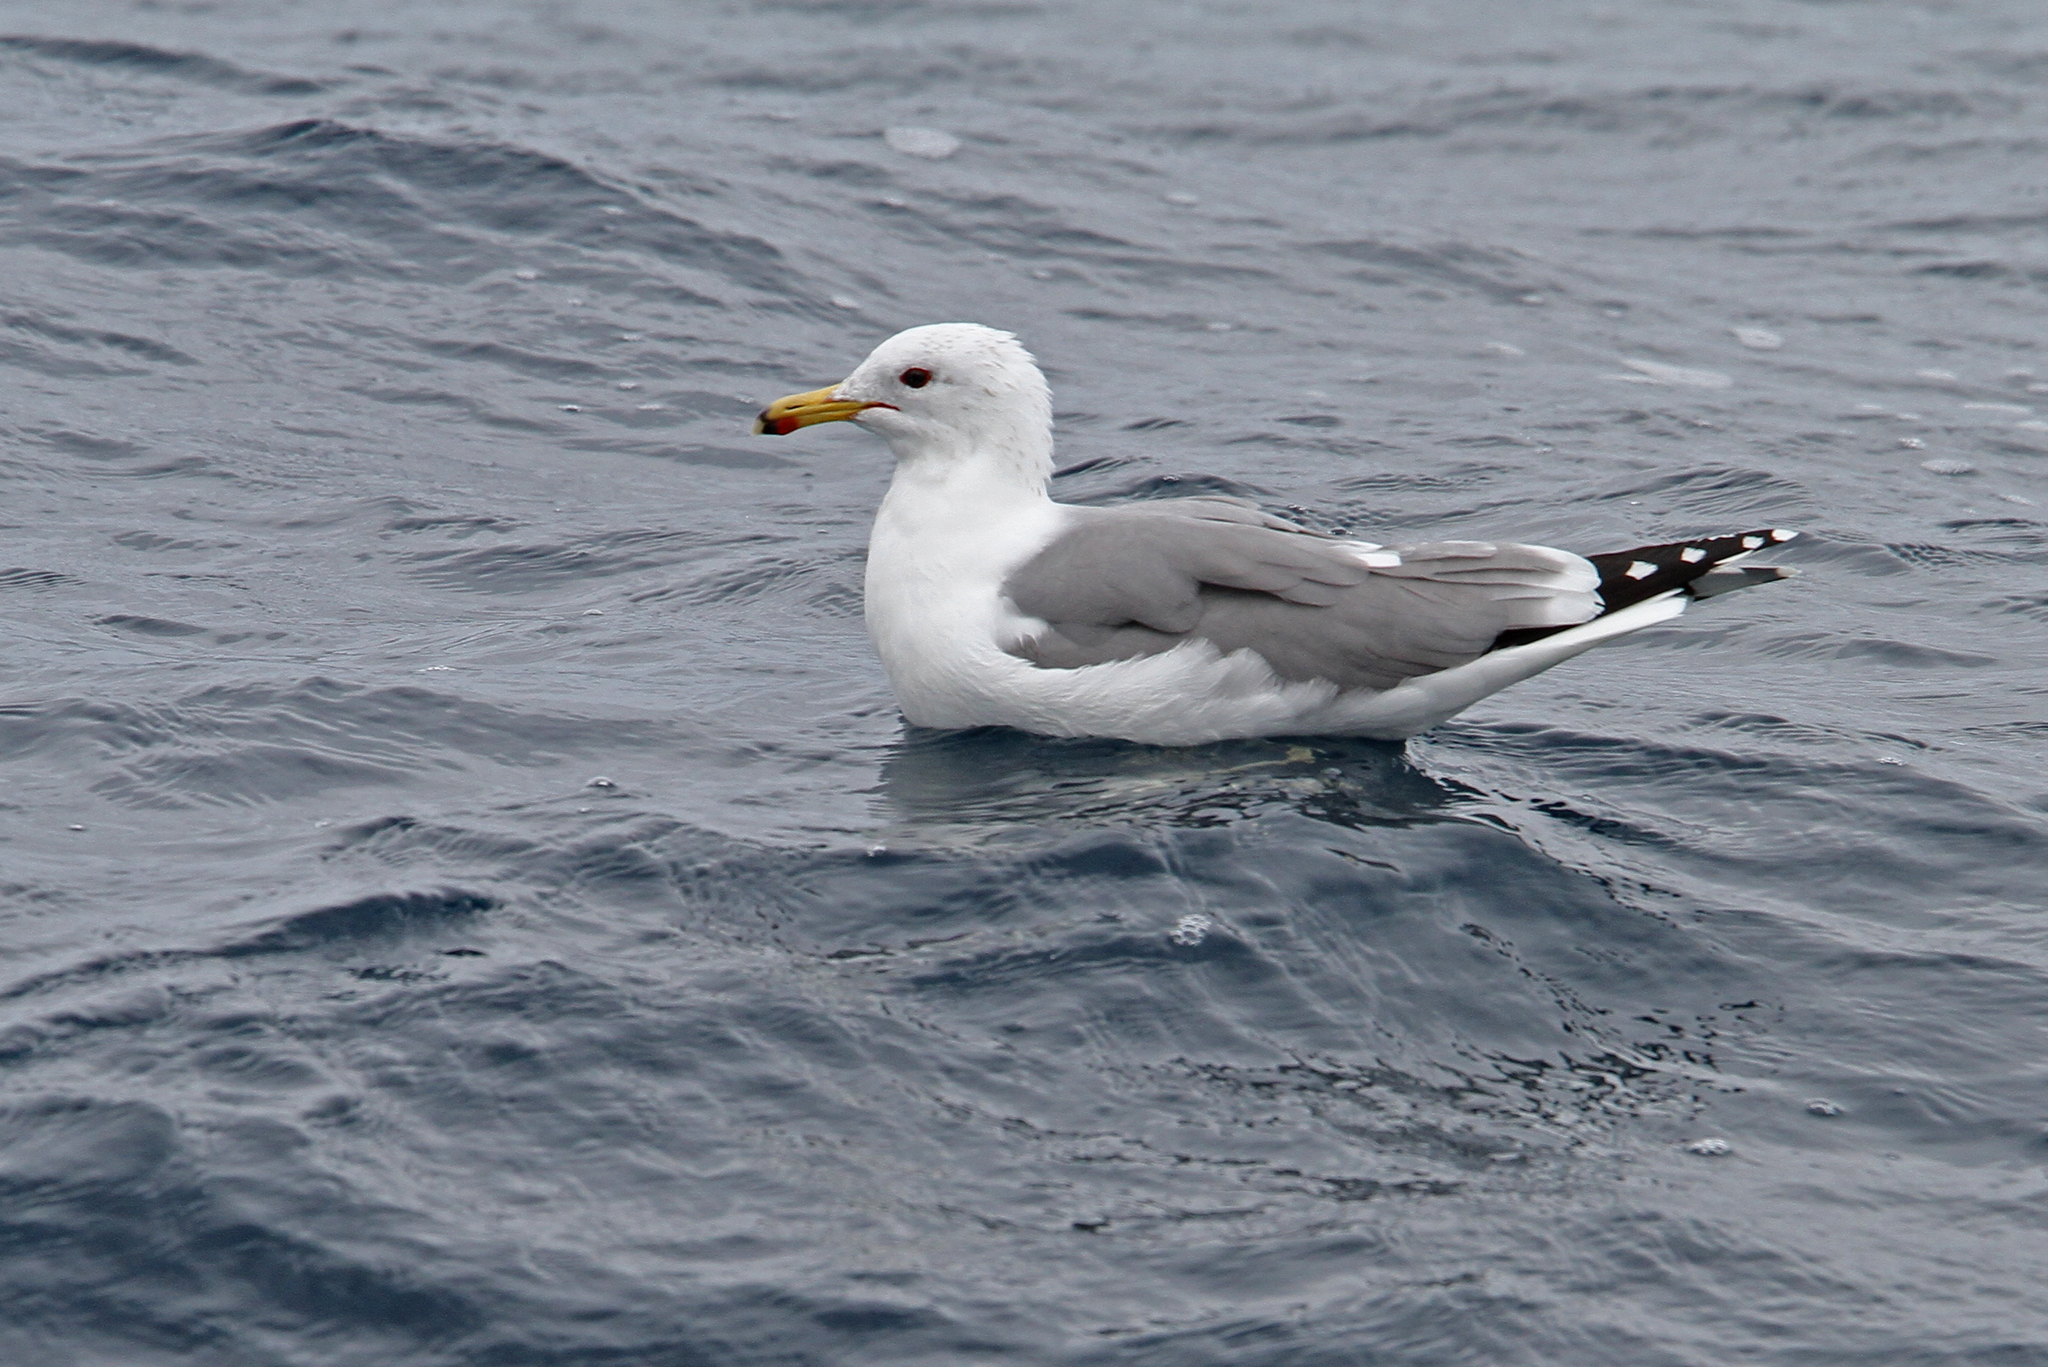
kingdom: Animalia
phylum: Chordata
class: Aves
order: Charadriiformes
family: Laridae
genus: Larus
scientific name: Larus californicus
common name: California gull
